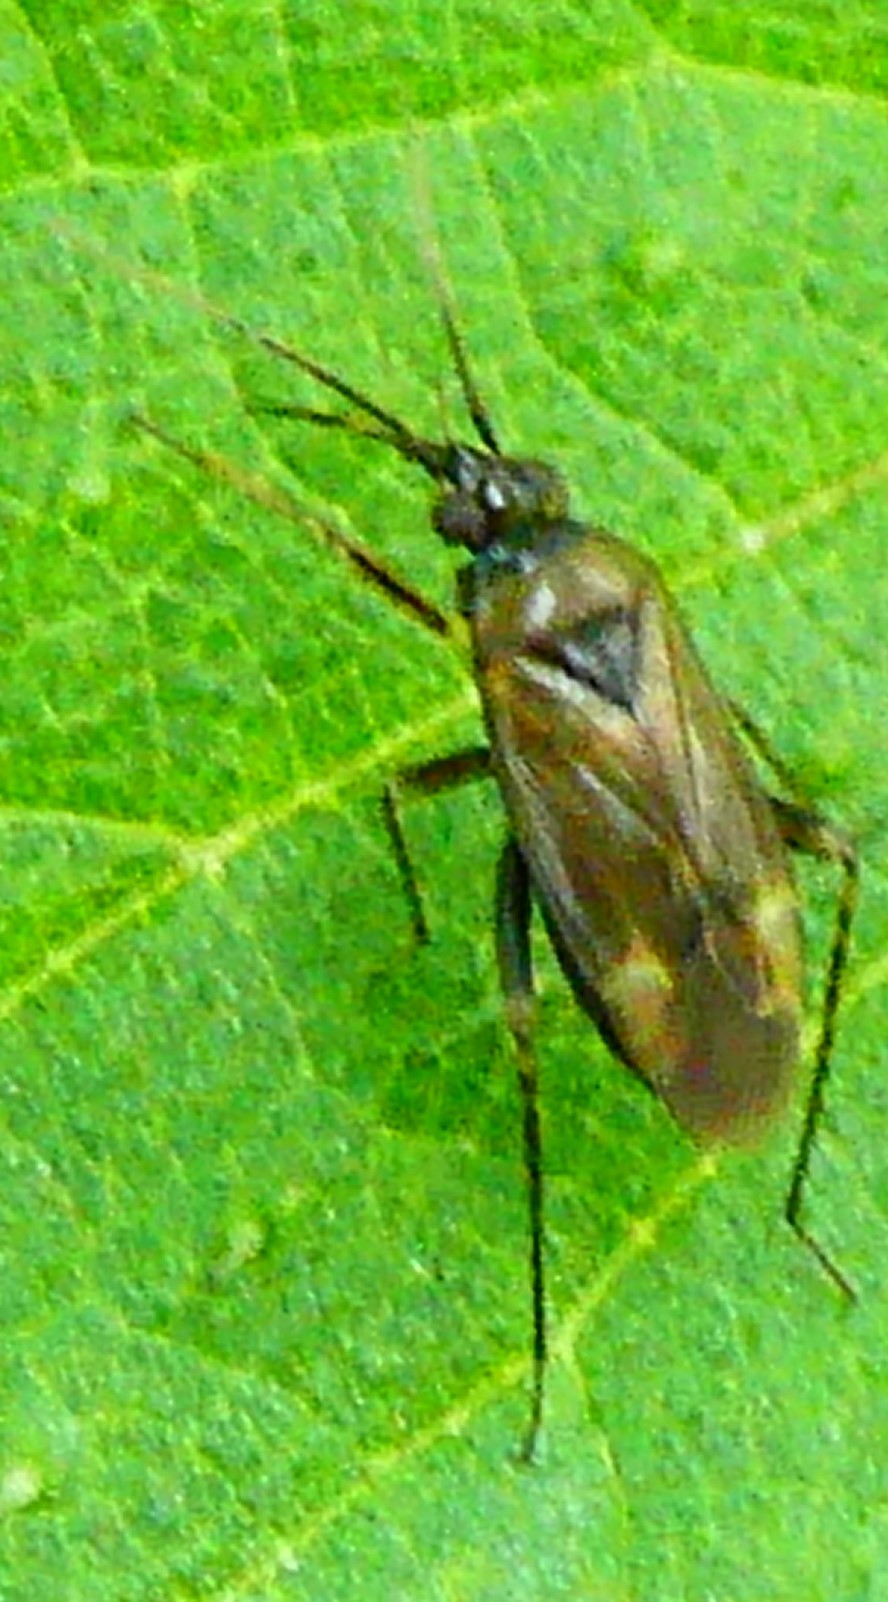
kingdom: Animalia
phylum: Arthropoda
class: Insecta
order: Hemiptera
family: Miridae
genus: Plagiognathus
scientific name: Plagiognathus arbustorum
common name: Plant bug
